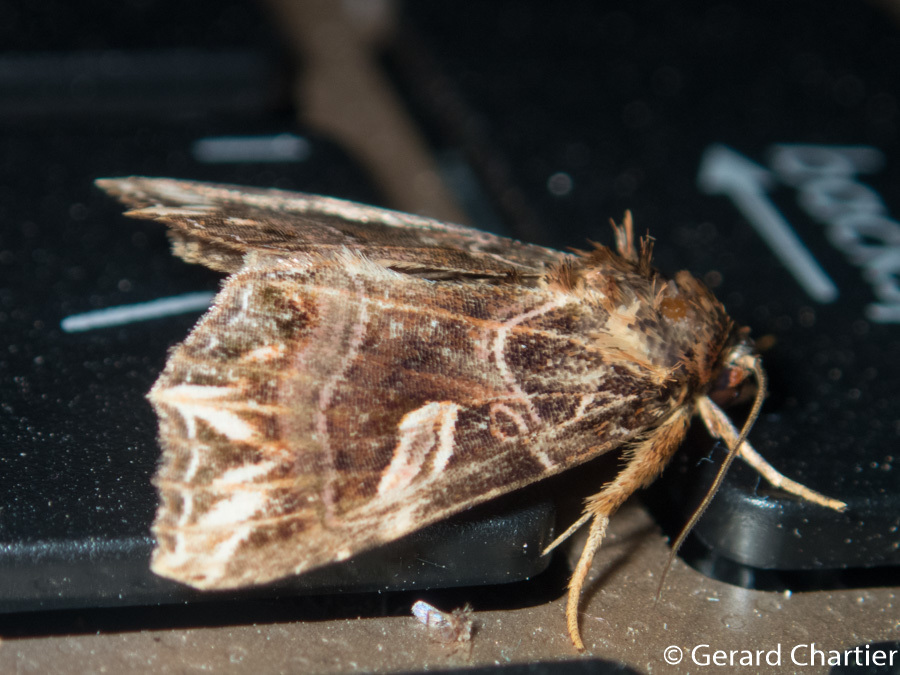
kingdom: Animalia
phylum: Arthropoda
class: Insecta
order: Lepidoptera
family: Noctuidae
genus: Callopistria
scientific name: Callopistria exotica
